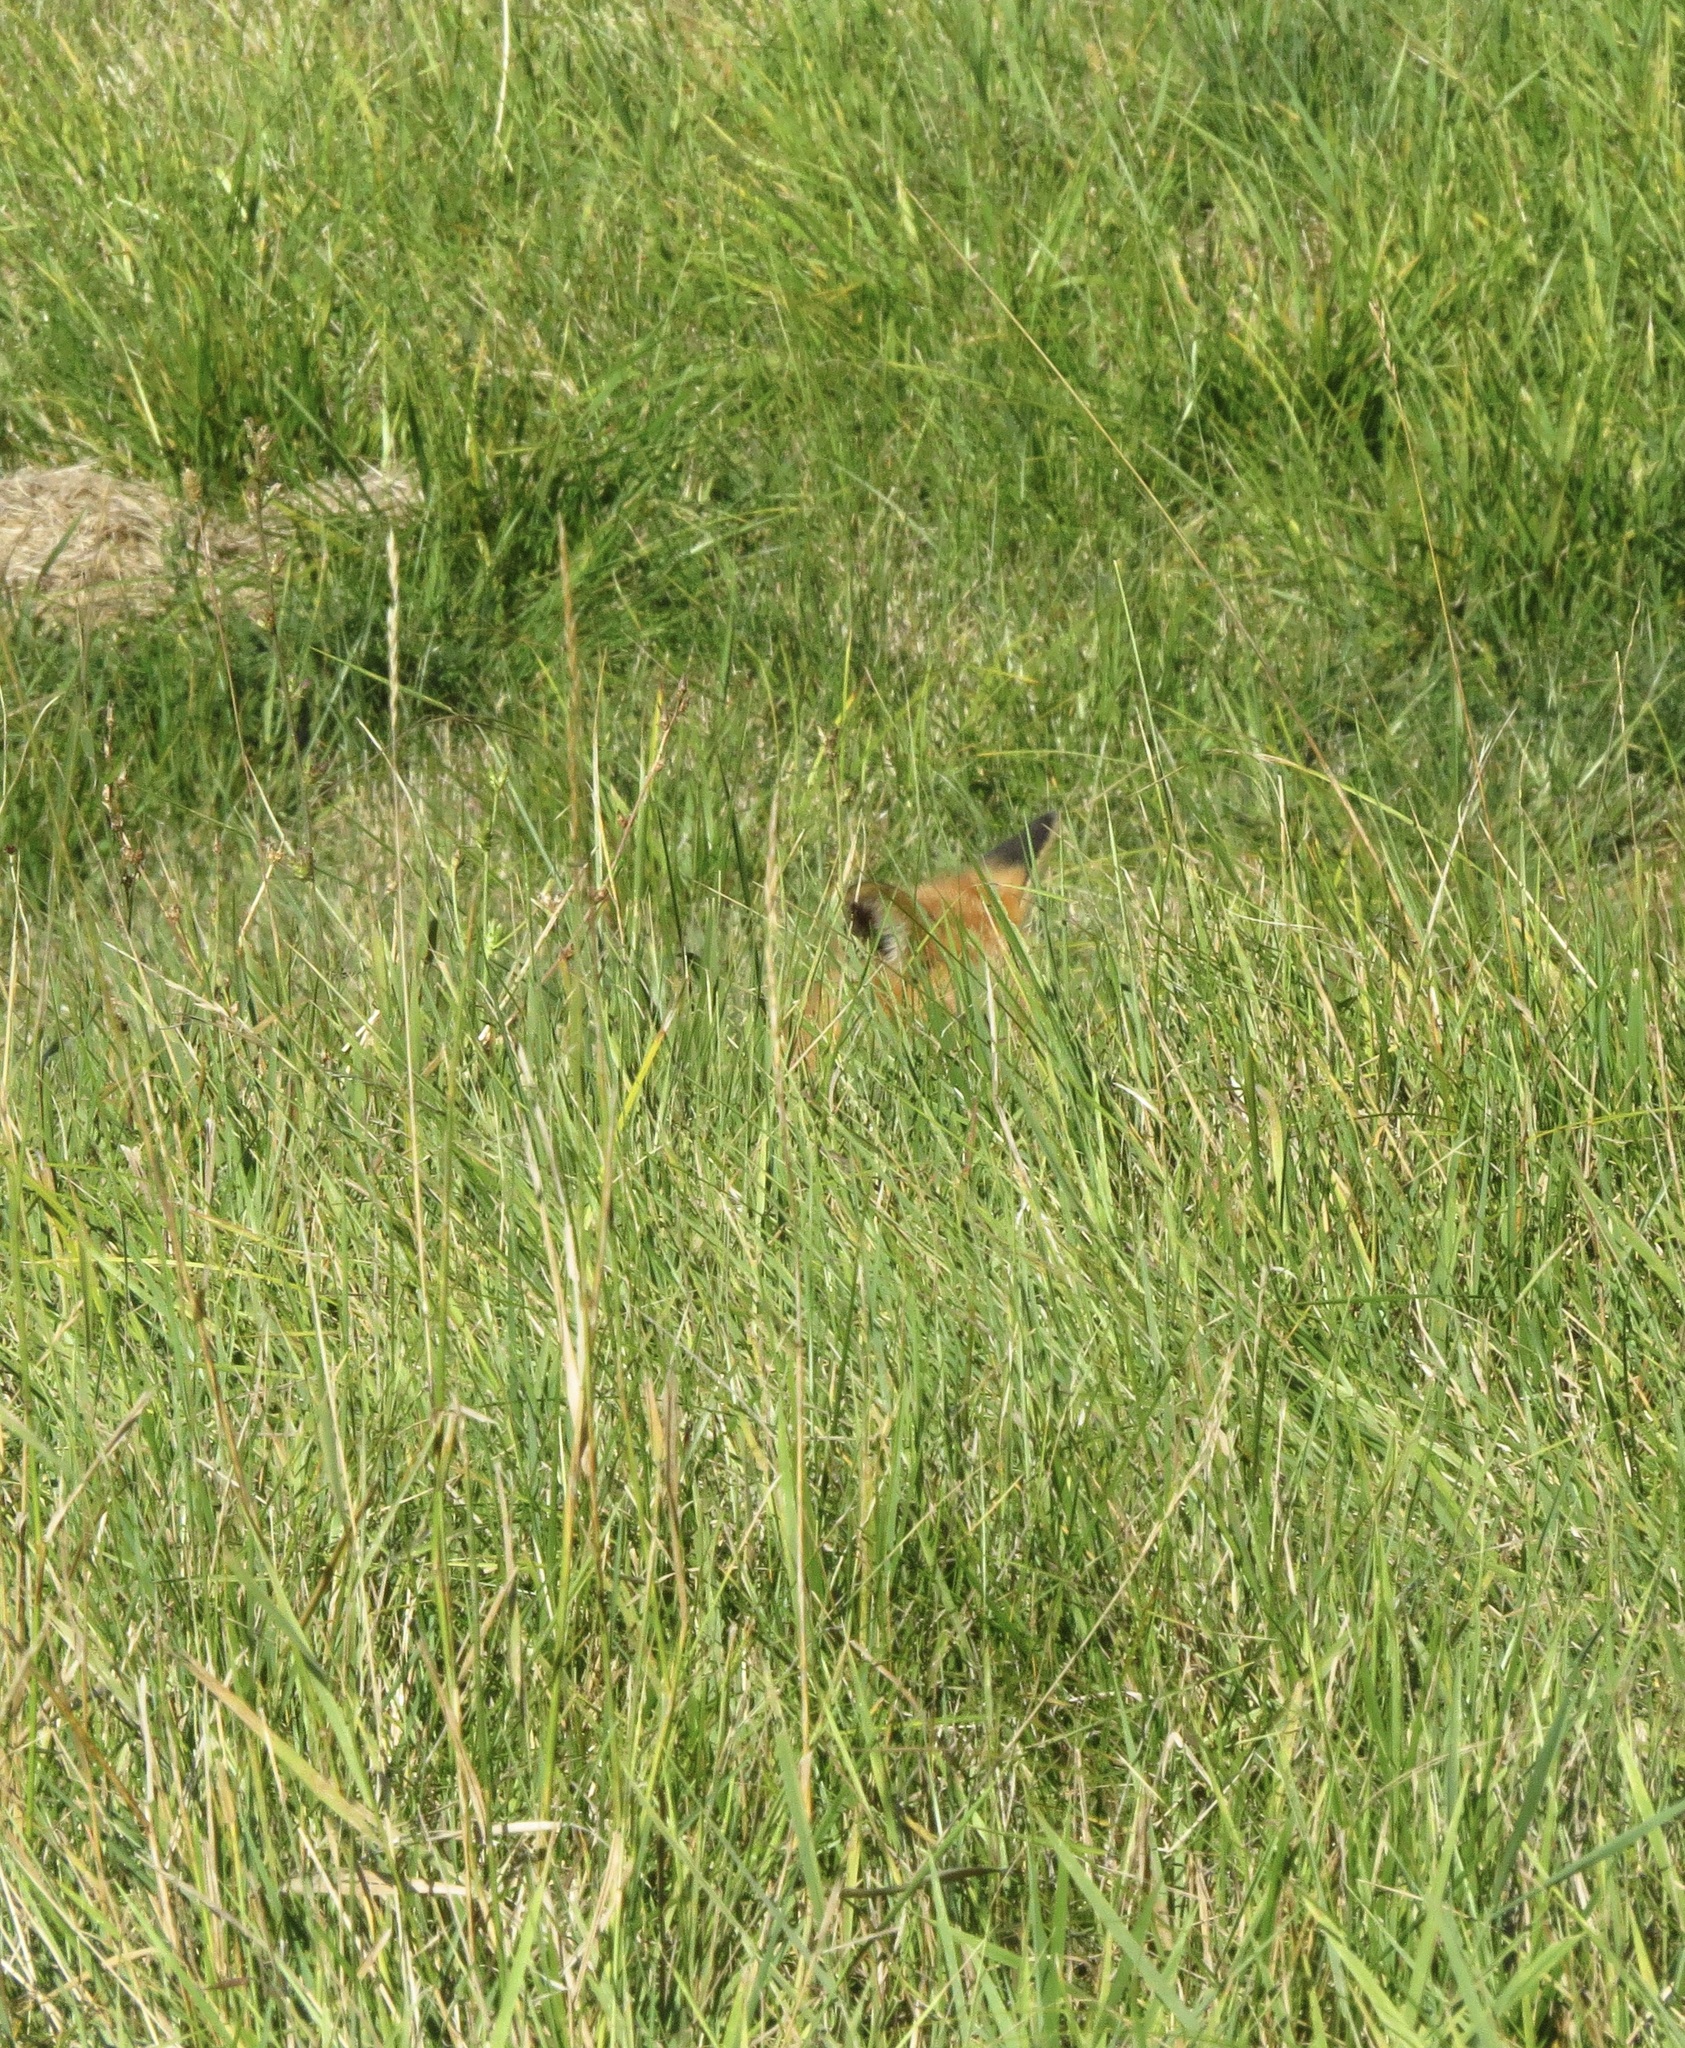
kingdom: Animalia
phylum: Chordata
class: Mammalia
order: Carnivora
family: Canidae
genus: Vulpes
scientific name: Vulpes vulpes
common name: Red fox
